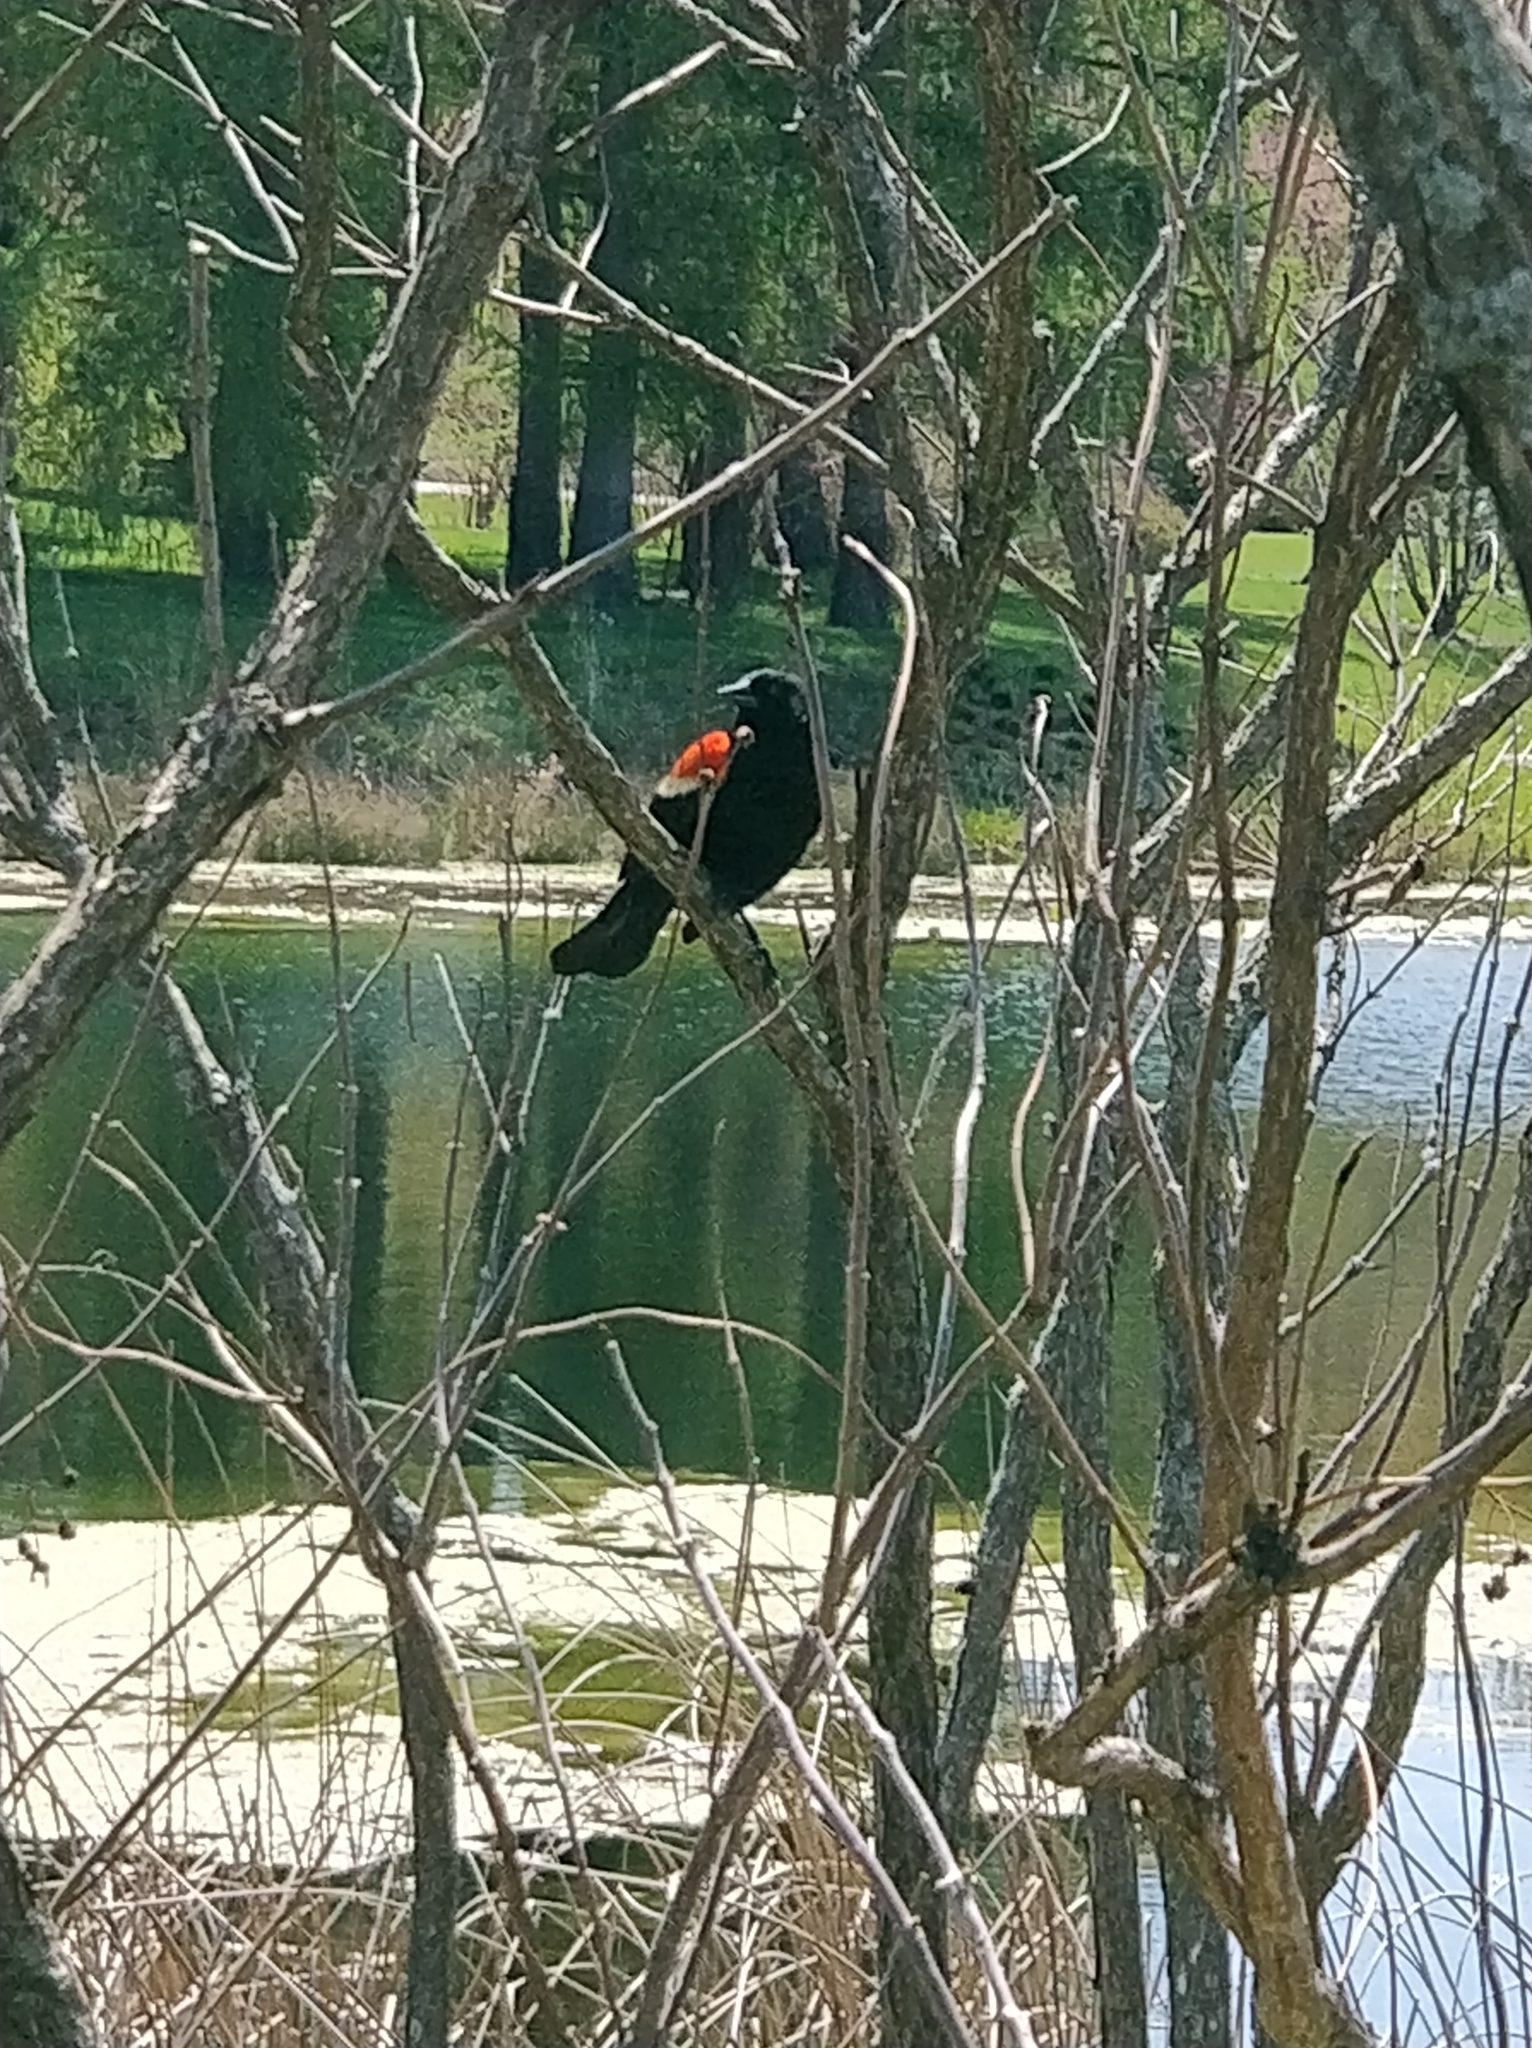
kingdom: Animalia
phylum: Chordata
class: Aves
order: Passeriformes
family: Icteridae
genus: Agelaius
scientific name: Agelaius phoeniceus
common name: Red-winged blackbird
